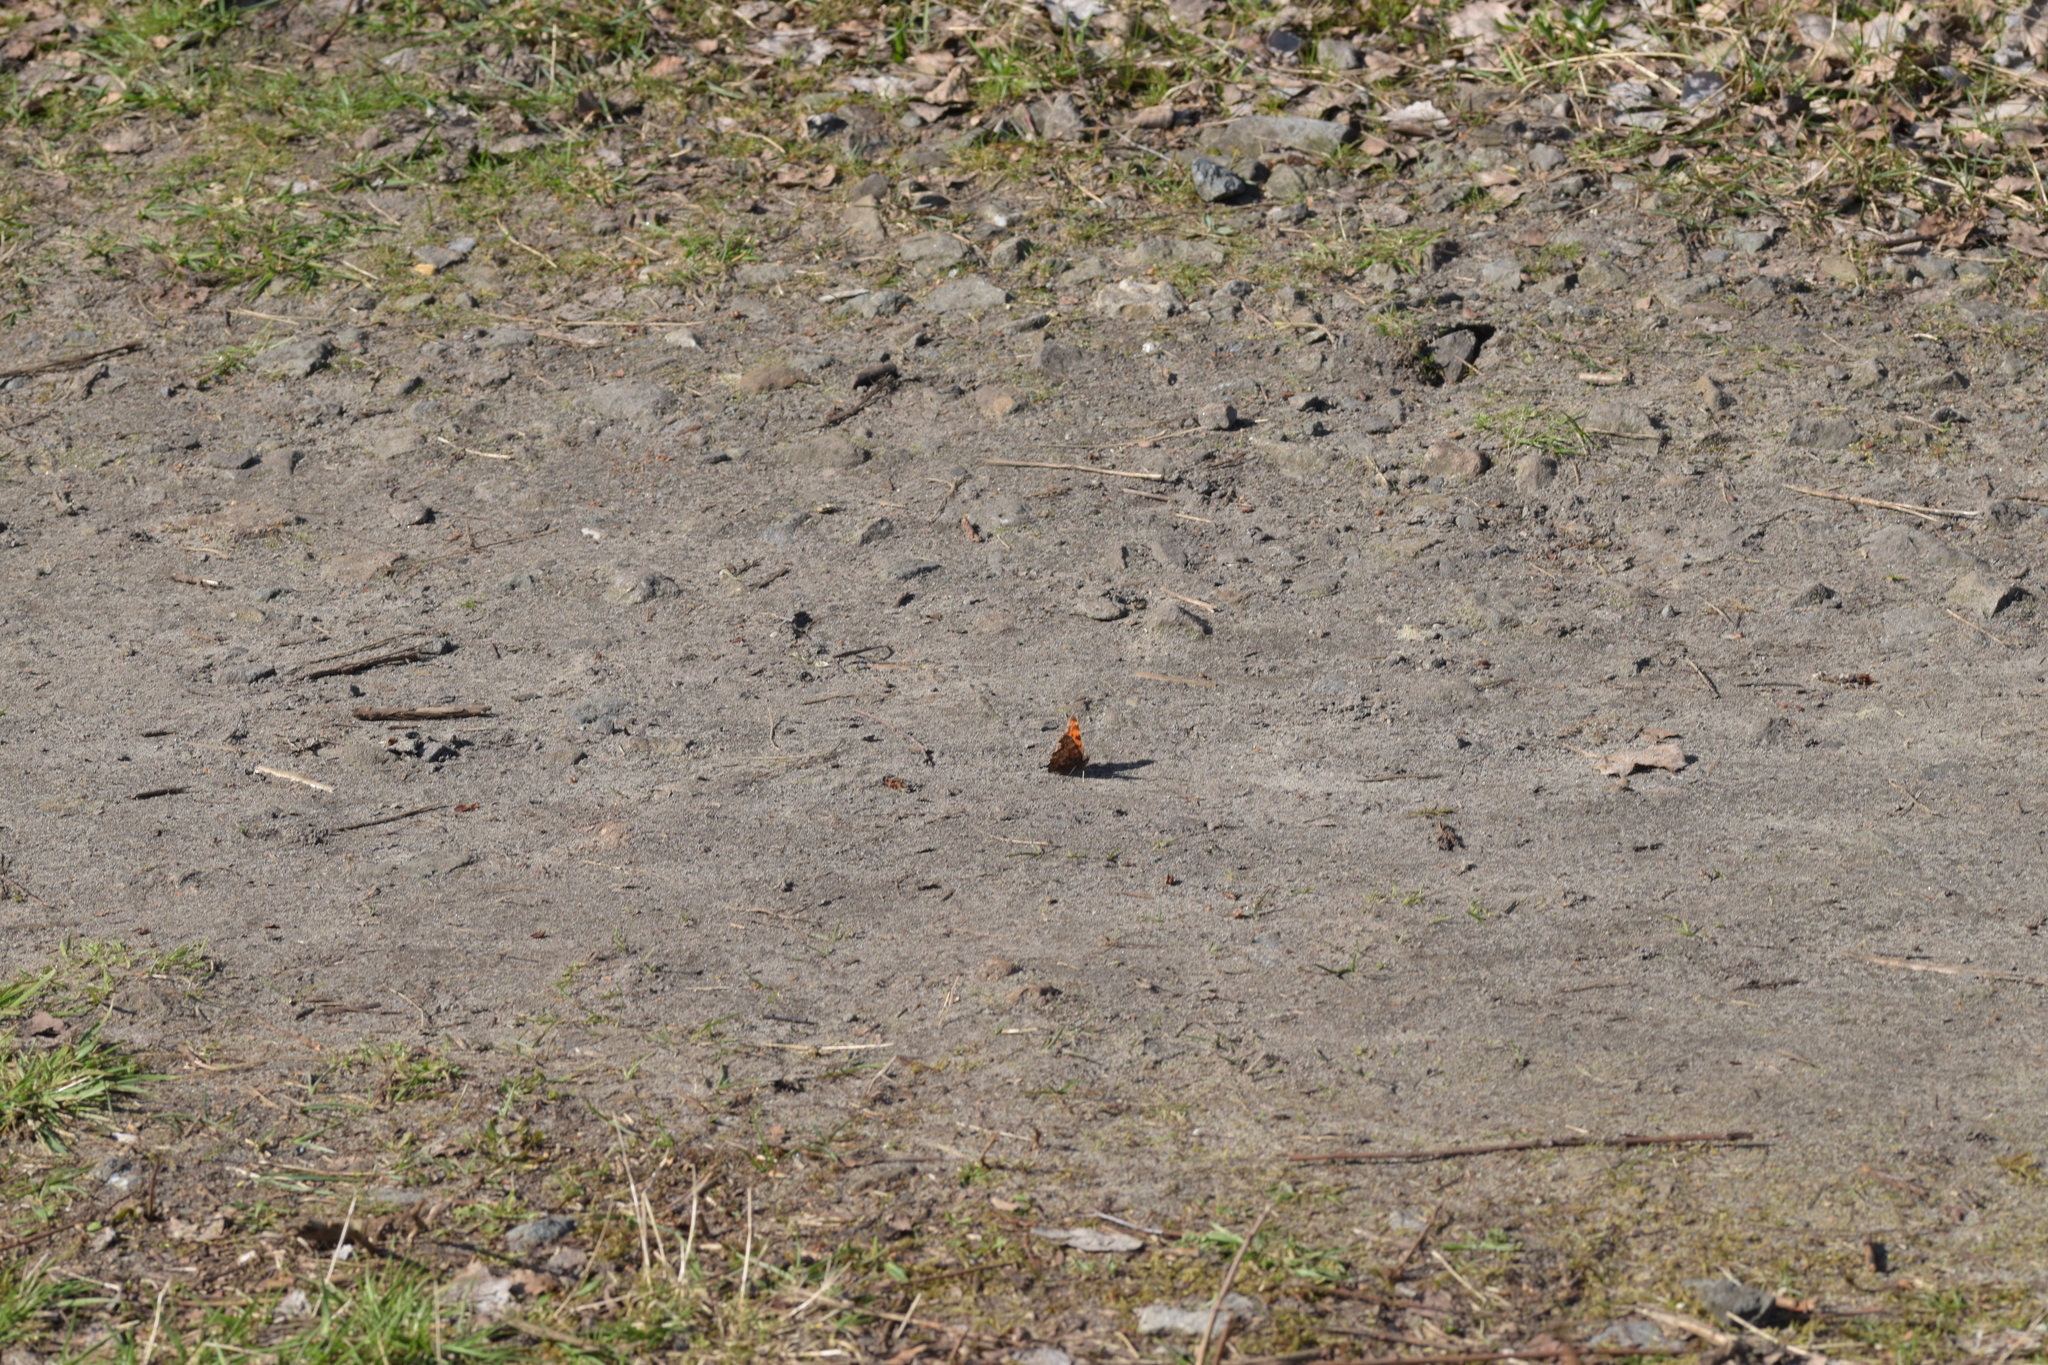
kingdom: Animalia
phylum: Arthropoda
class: Insecta
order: Lepidoptera
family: Nymphalidae
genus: Polygonia
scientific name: Polygonia c-album
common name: Comma
